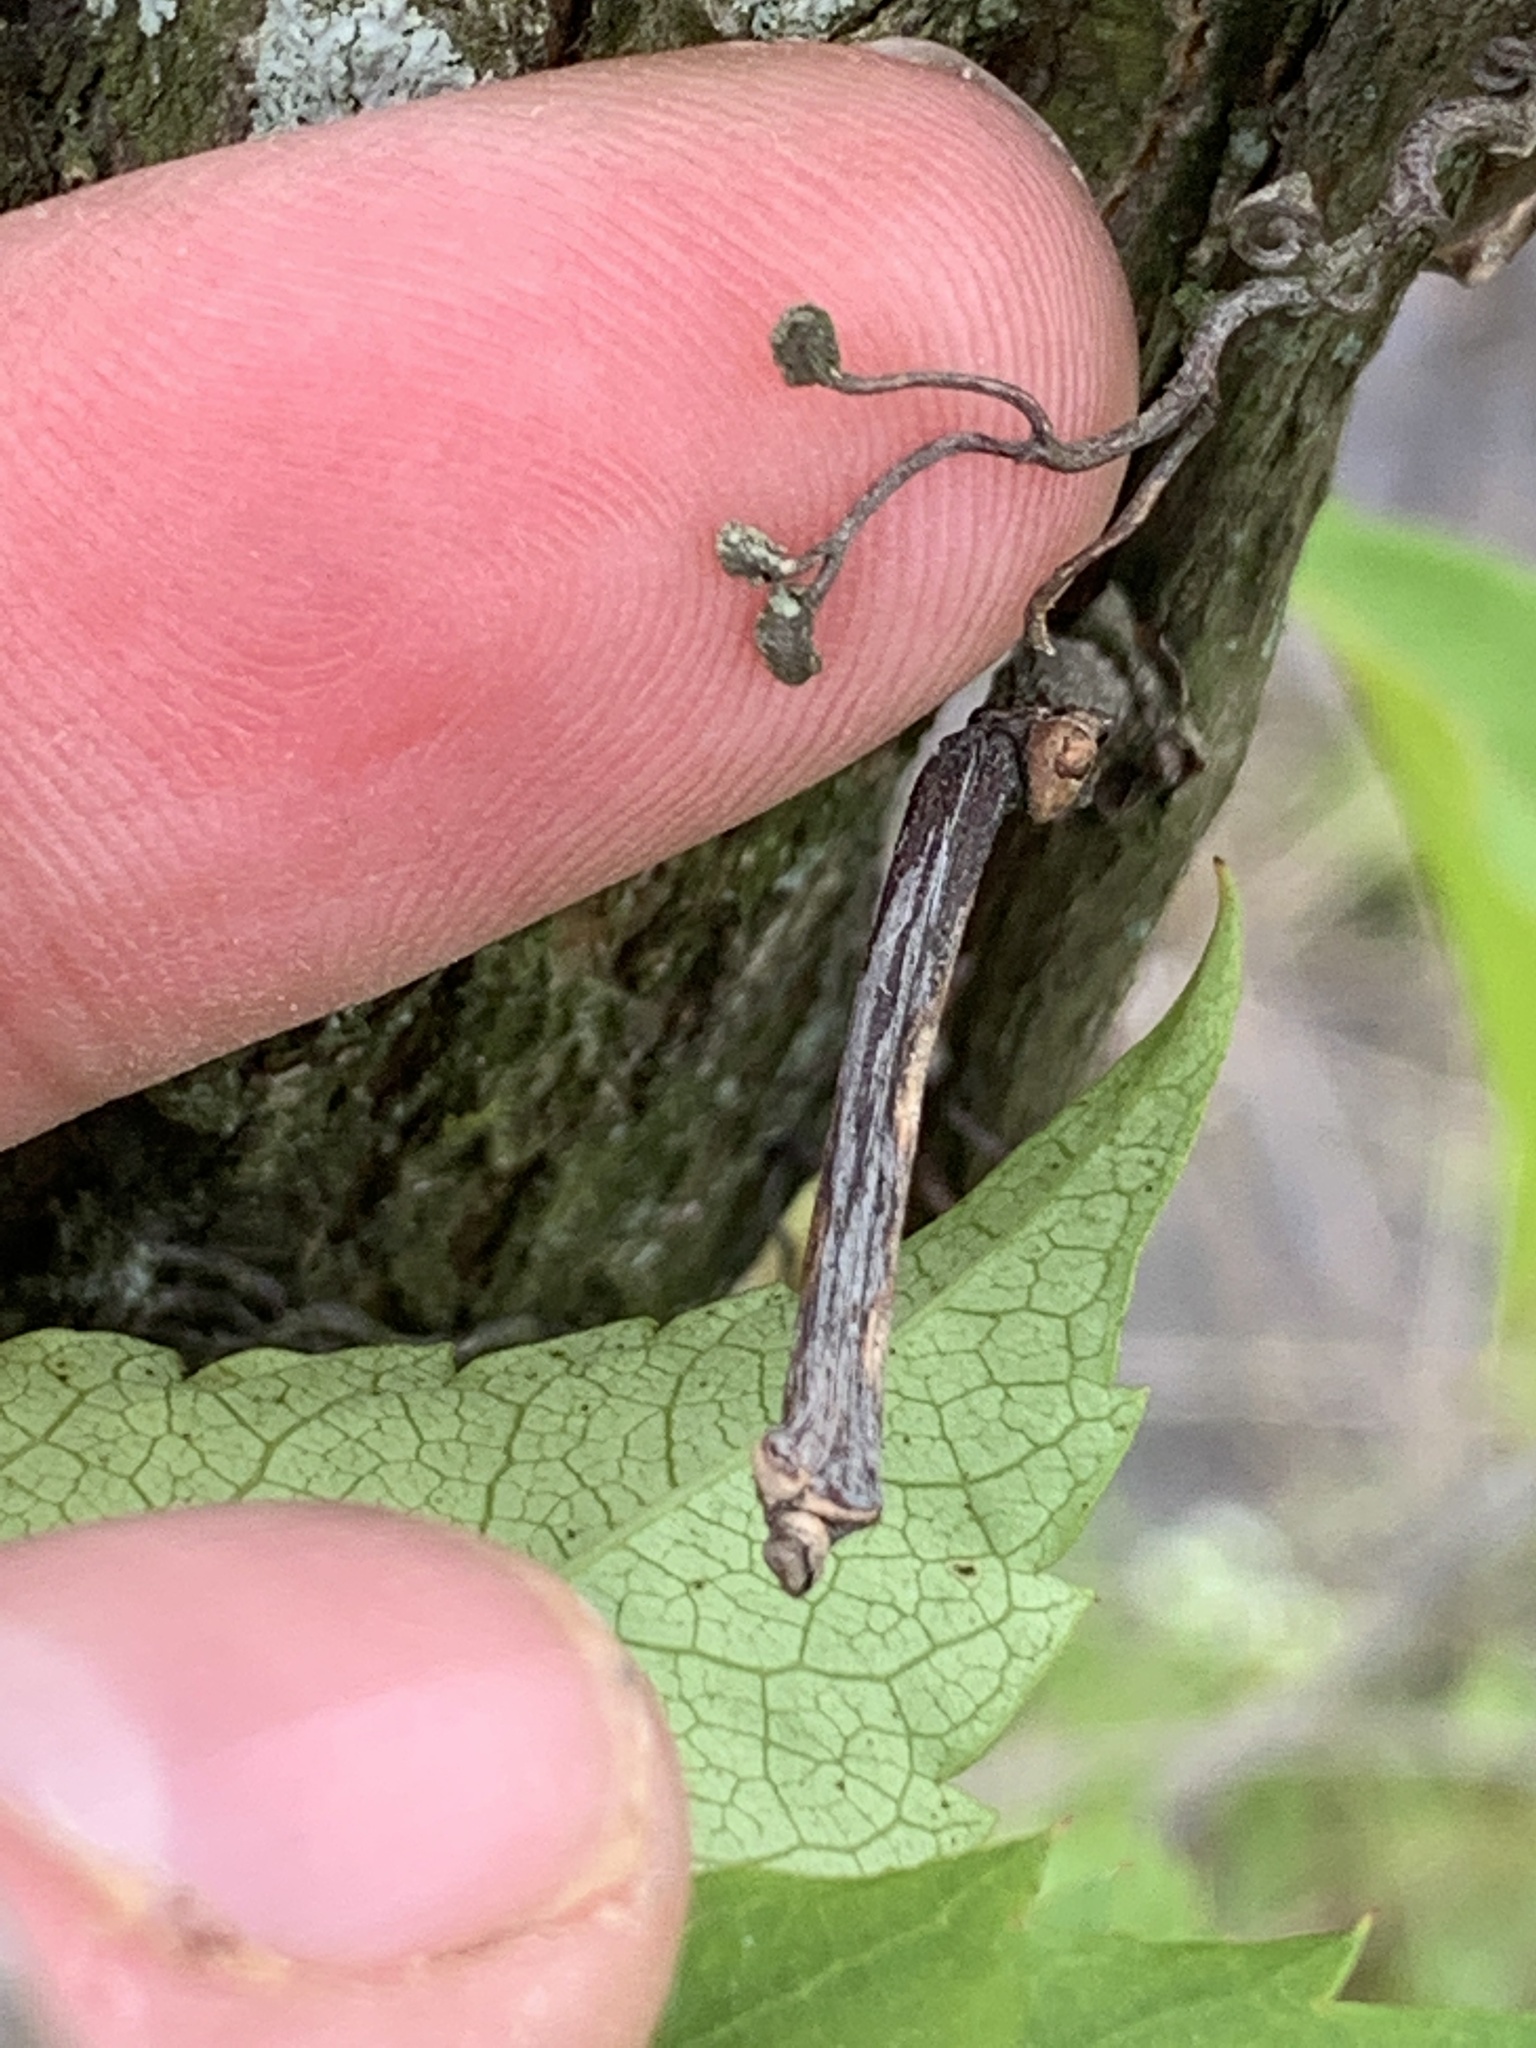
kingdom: Plantae
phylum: Tracheophyta
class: Magnoliopsida
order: Vitales
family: Vitaceae
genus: Parthenocissus
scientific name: Parthenocissus quinquefolia
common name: Virginia-creeper
